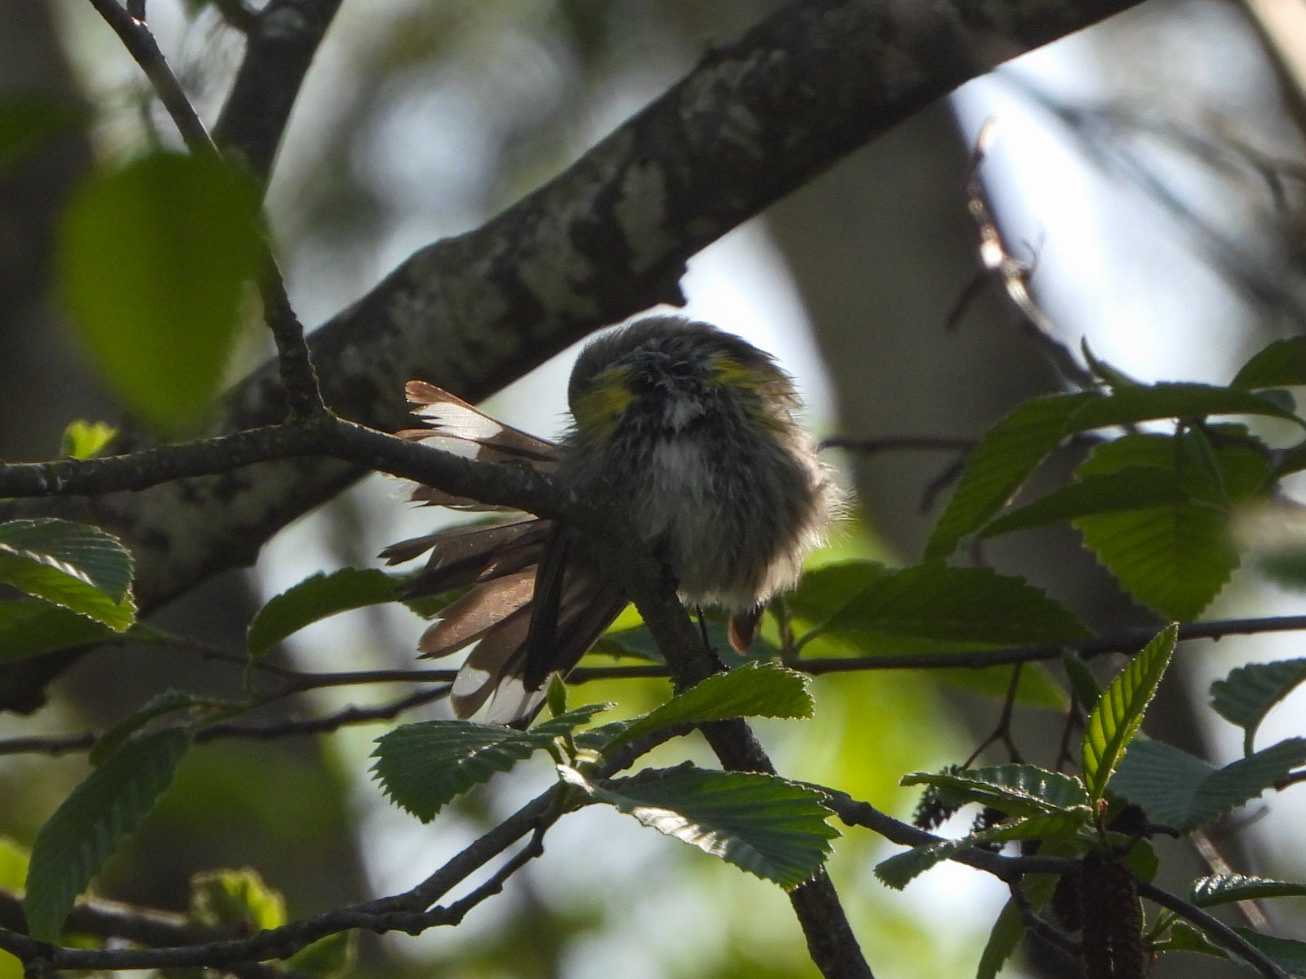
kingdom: Animalia
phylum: Chordata
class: Aves
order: Passeriformes
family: Parulidae
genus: Setophaga
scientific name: Setophaga coronata
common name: Myrtle warbler
